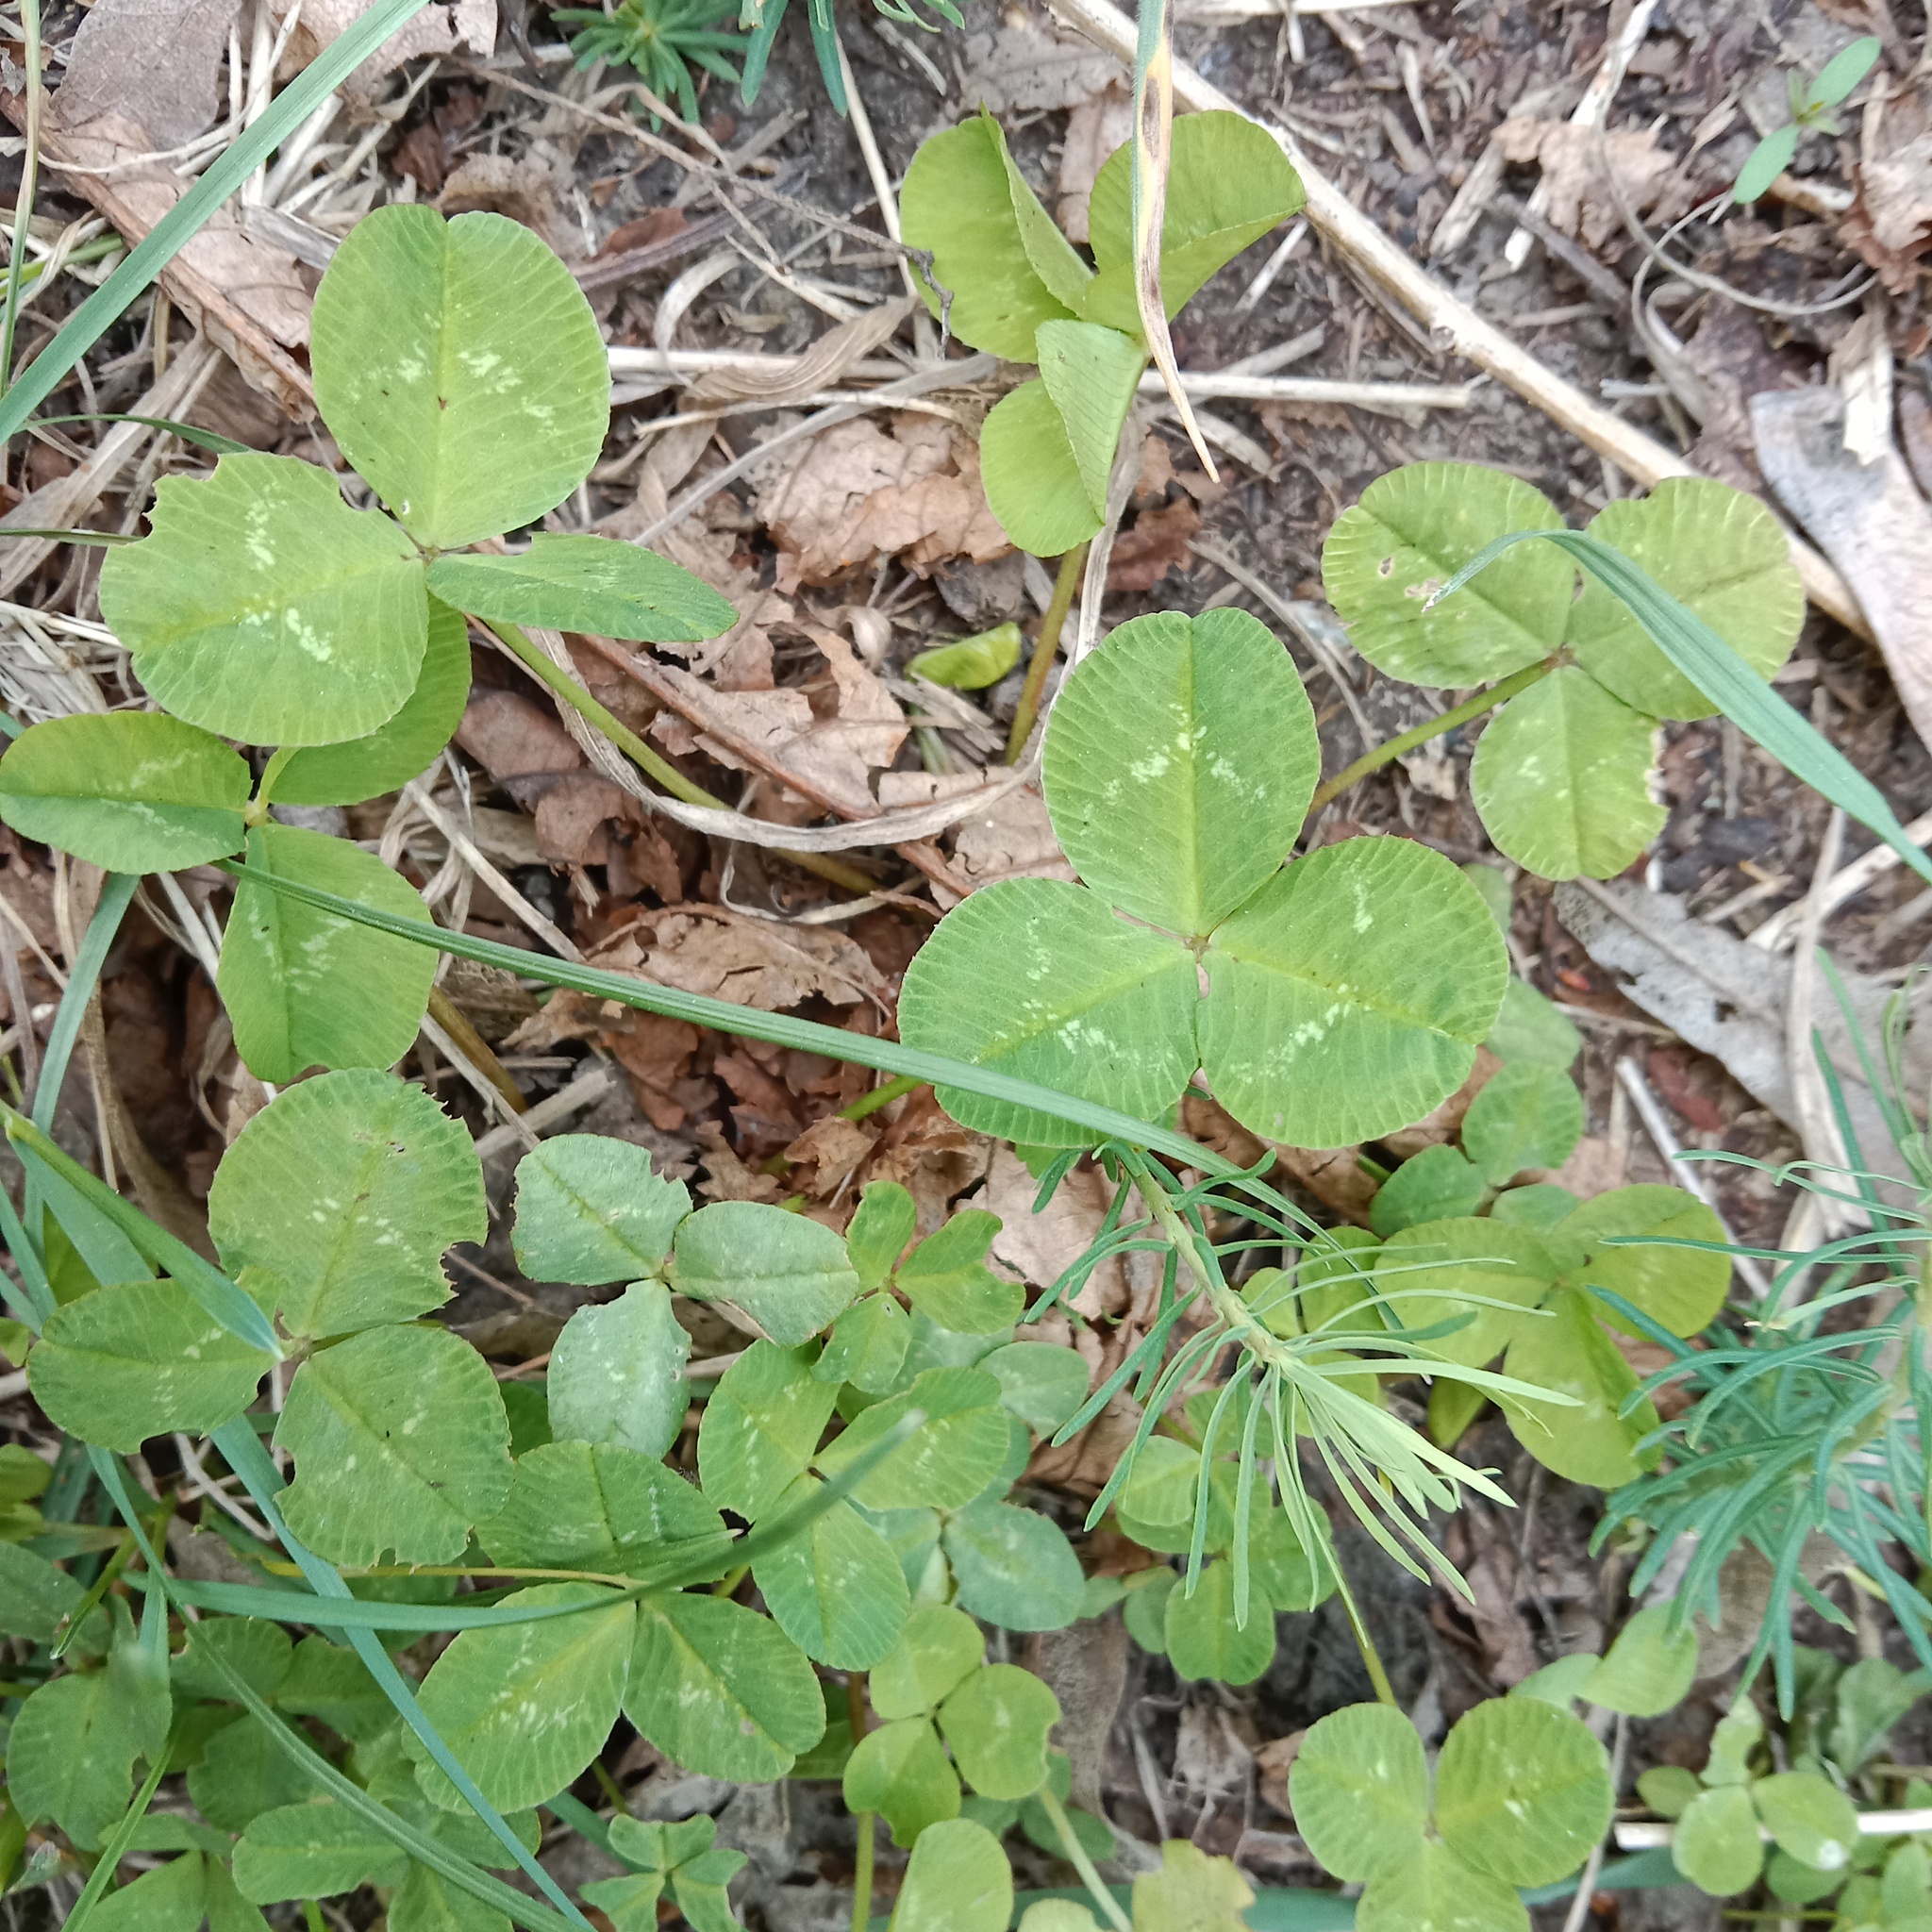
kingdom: Plantae
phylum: Tracheophyta
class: Magnoliopsida
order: Fabales
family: Fabaceae
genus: Trifolium
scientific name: Trifolium repens
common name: White clover
